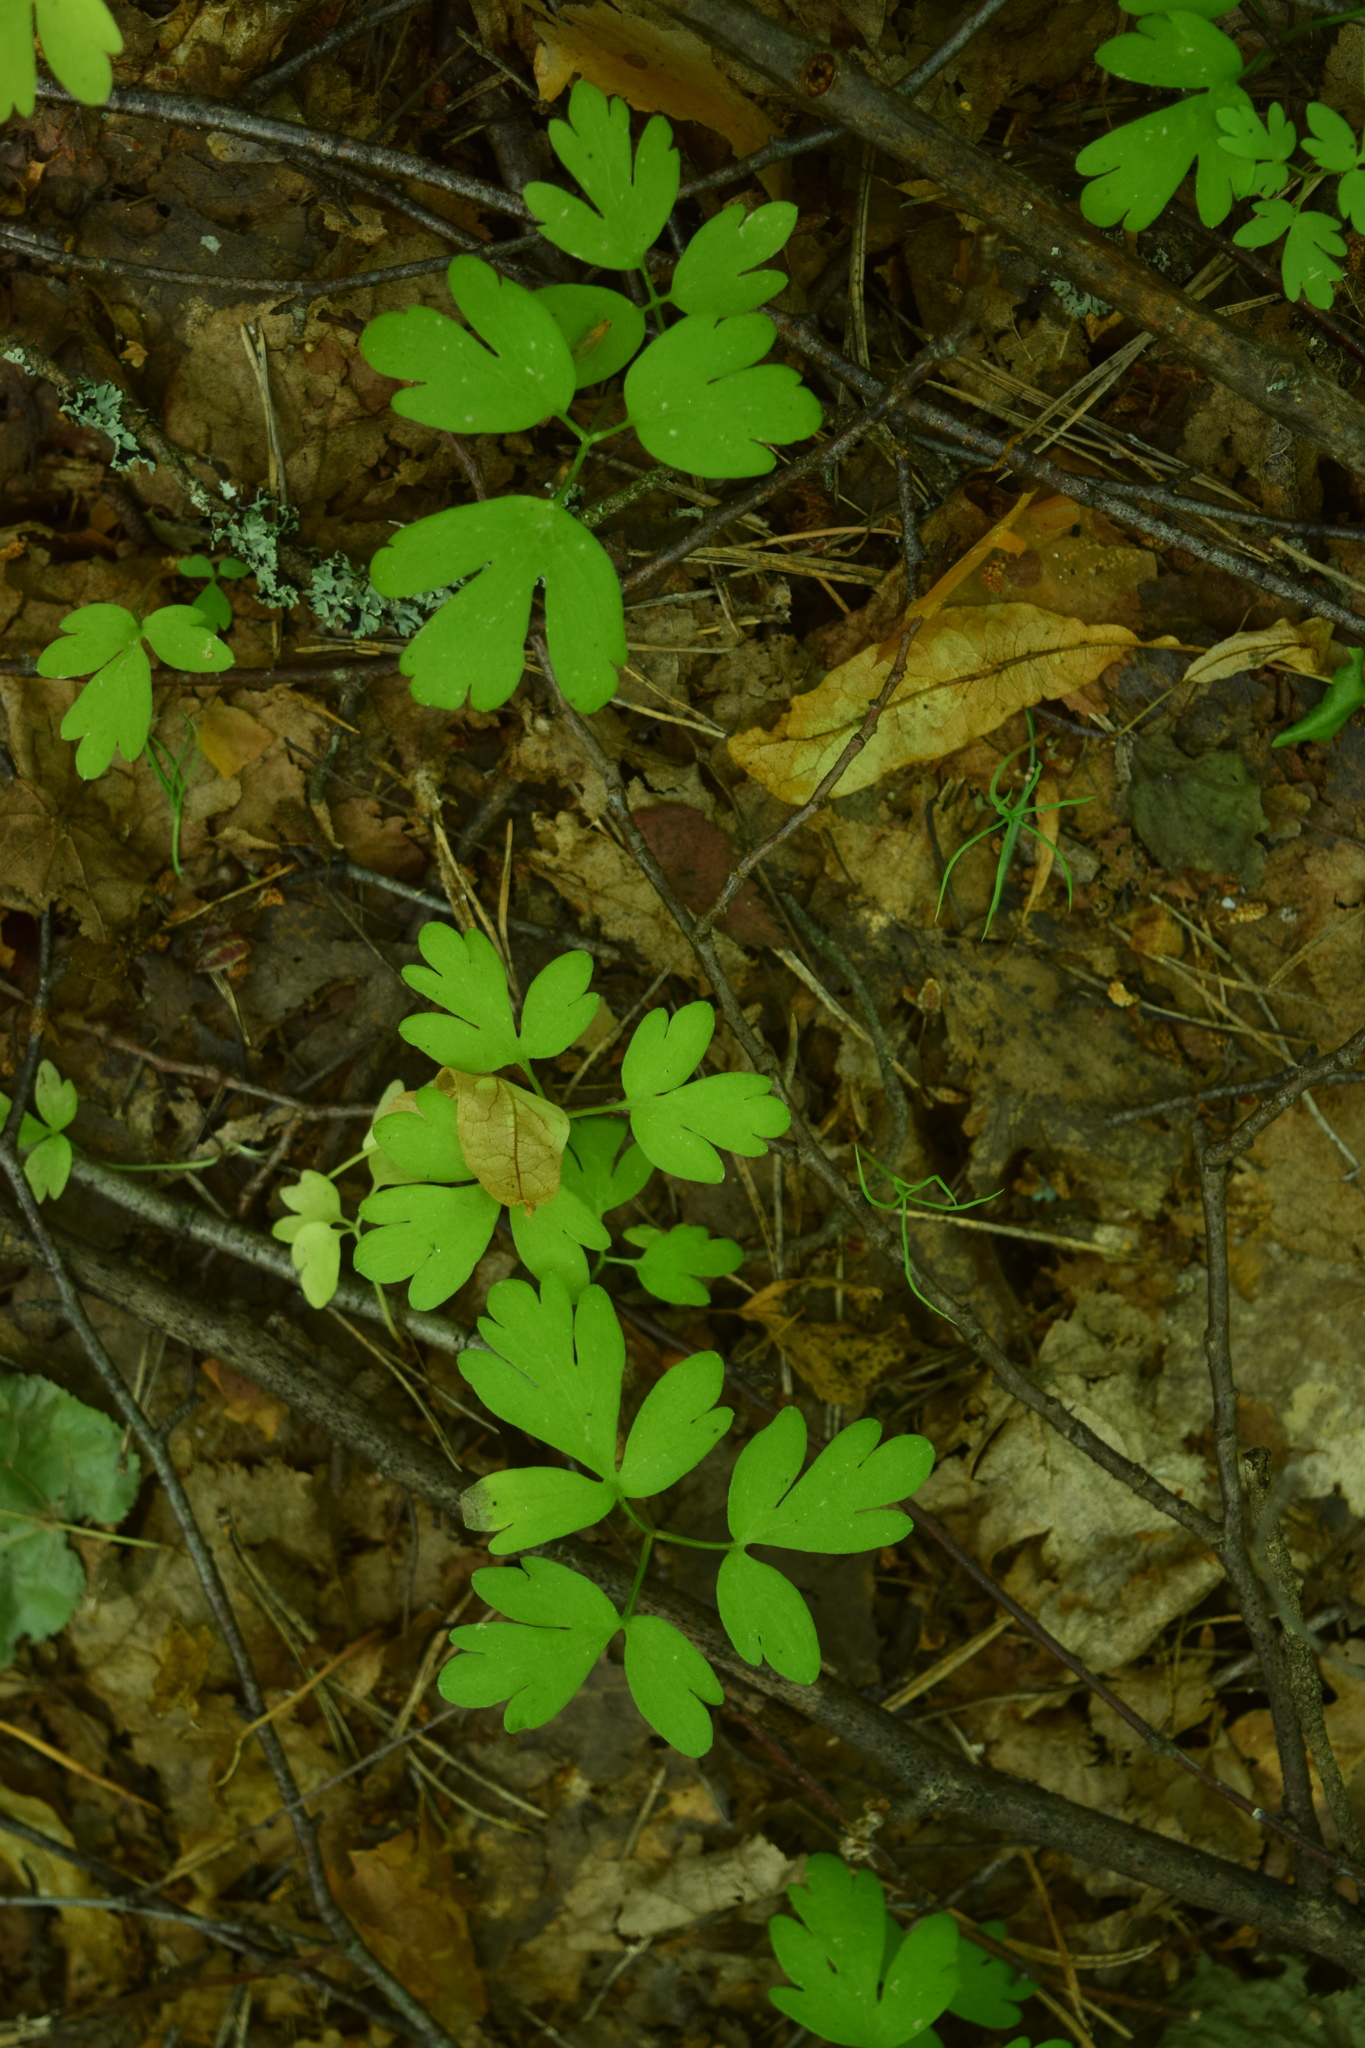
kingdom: Plantae
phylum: Tracheophyta
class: Magnoliopsida
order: Dipsacales
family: Viburnaceae
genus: Adoxa
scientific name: Adoxa moschatellina
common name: Moschatel
